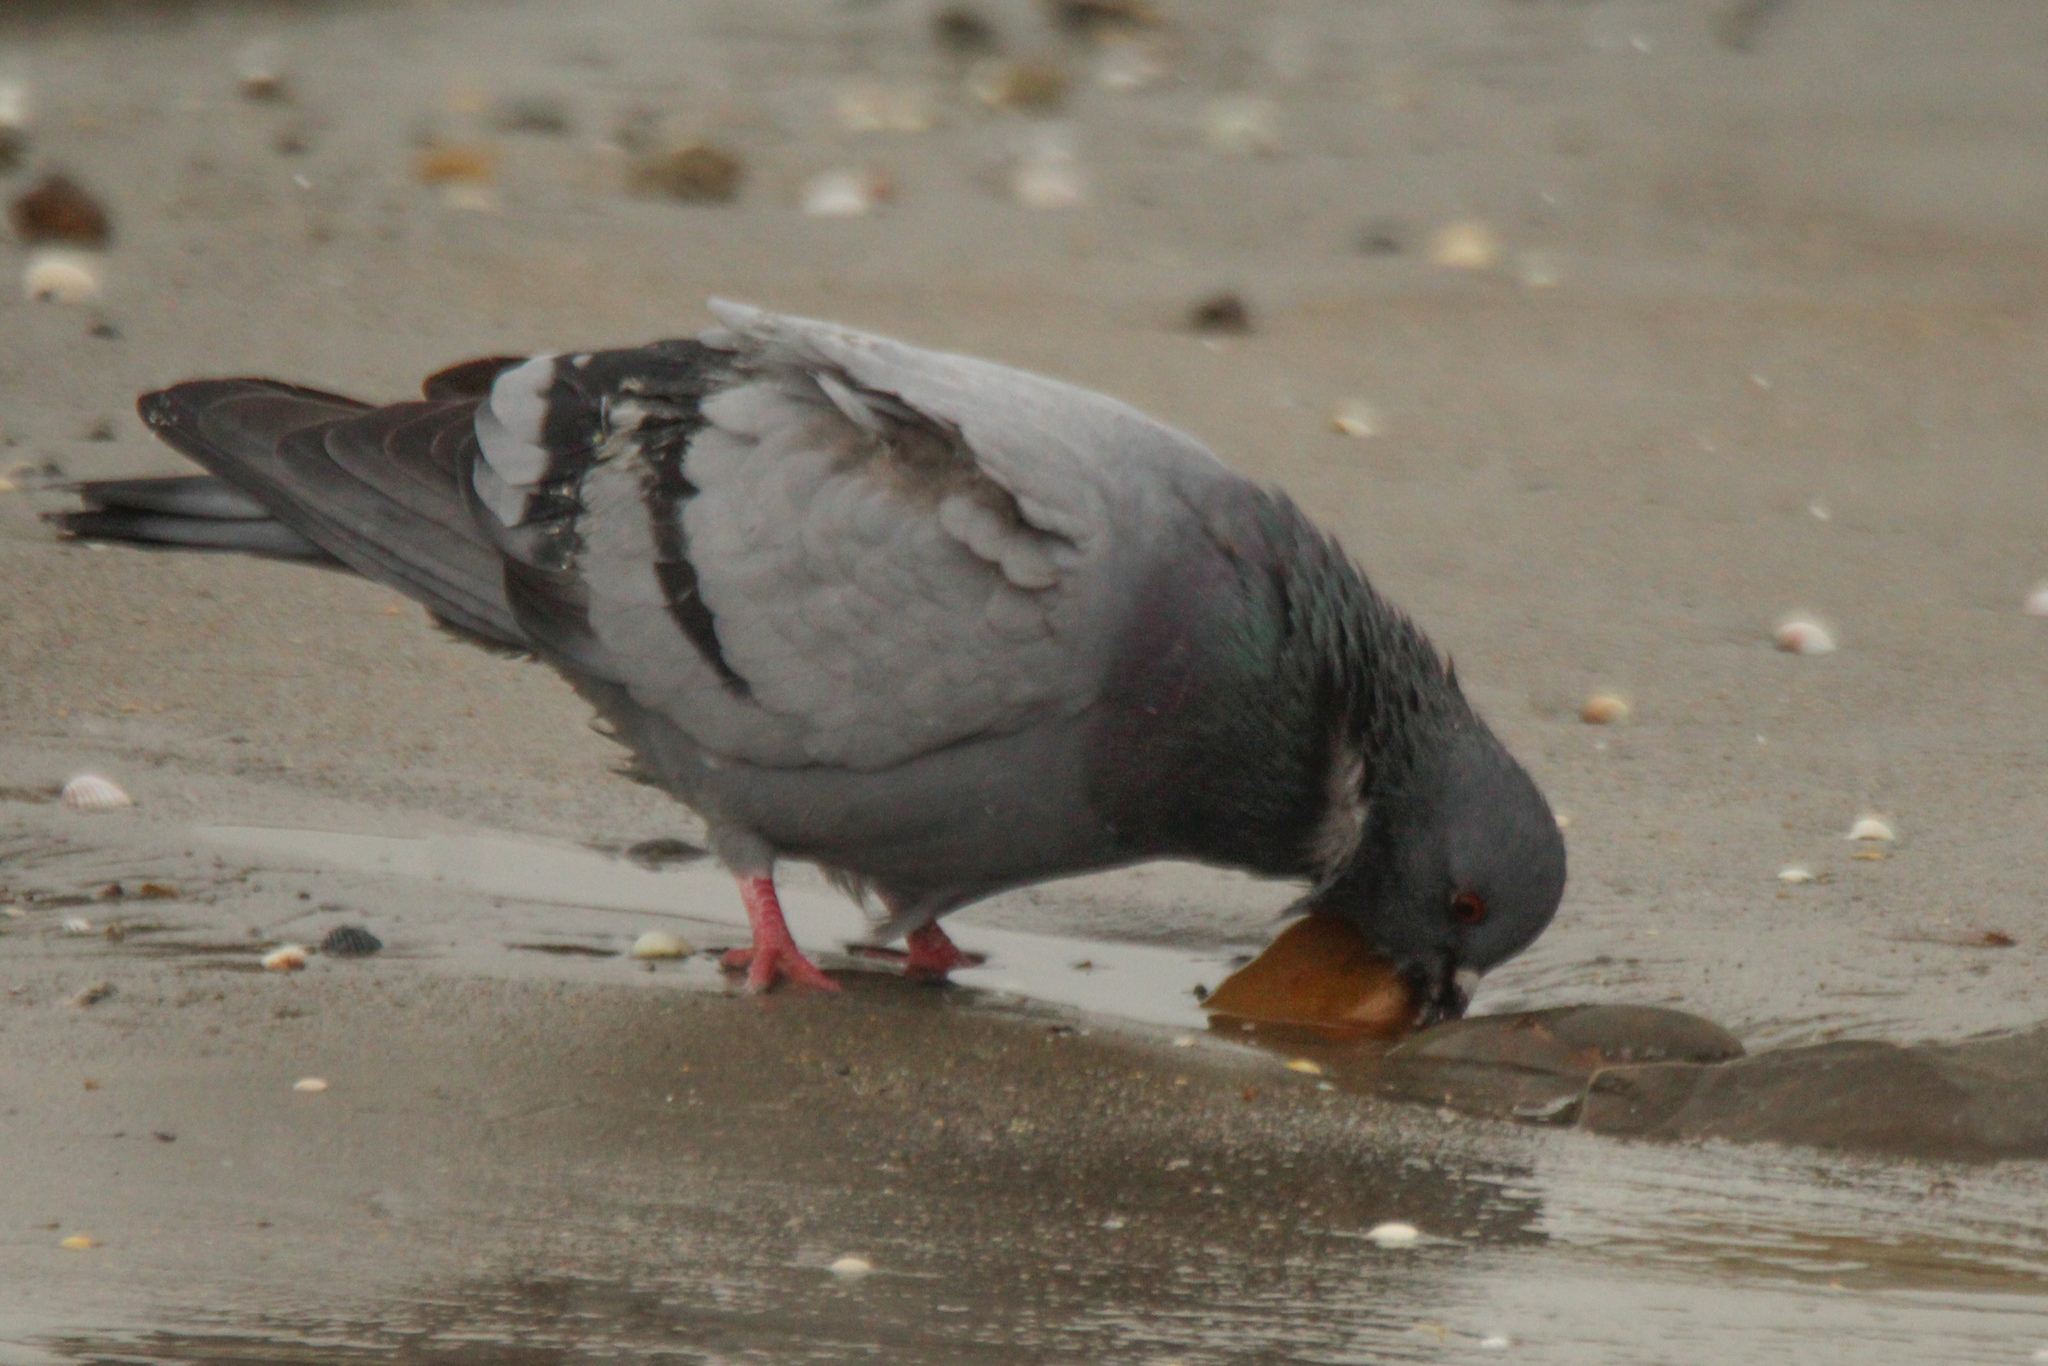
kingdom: Animalia
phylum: Chordata
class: Aves
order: Columbiformes
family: Columbidae
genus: Columba
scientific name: Columba livia
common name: Rock pigeon
